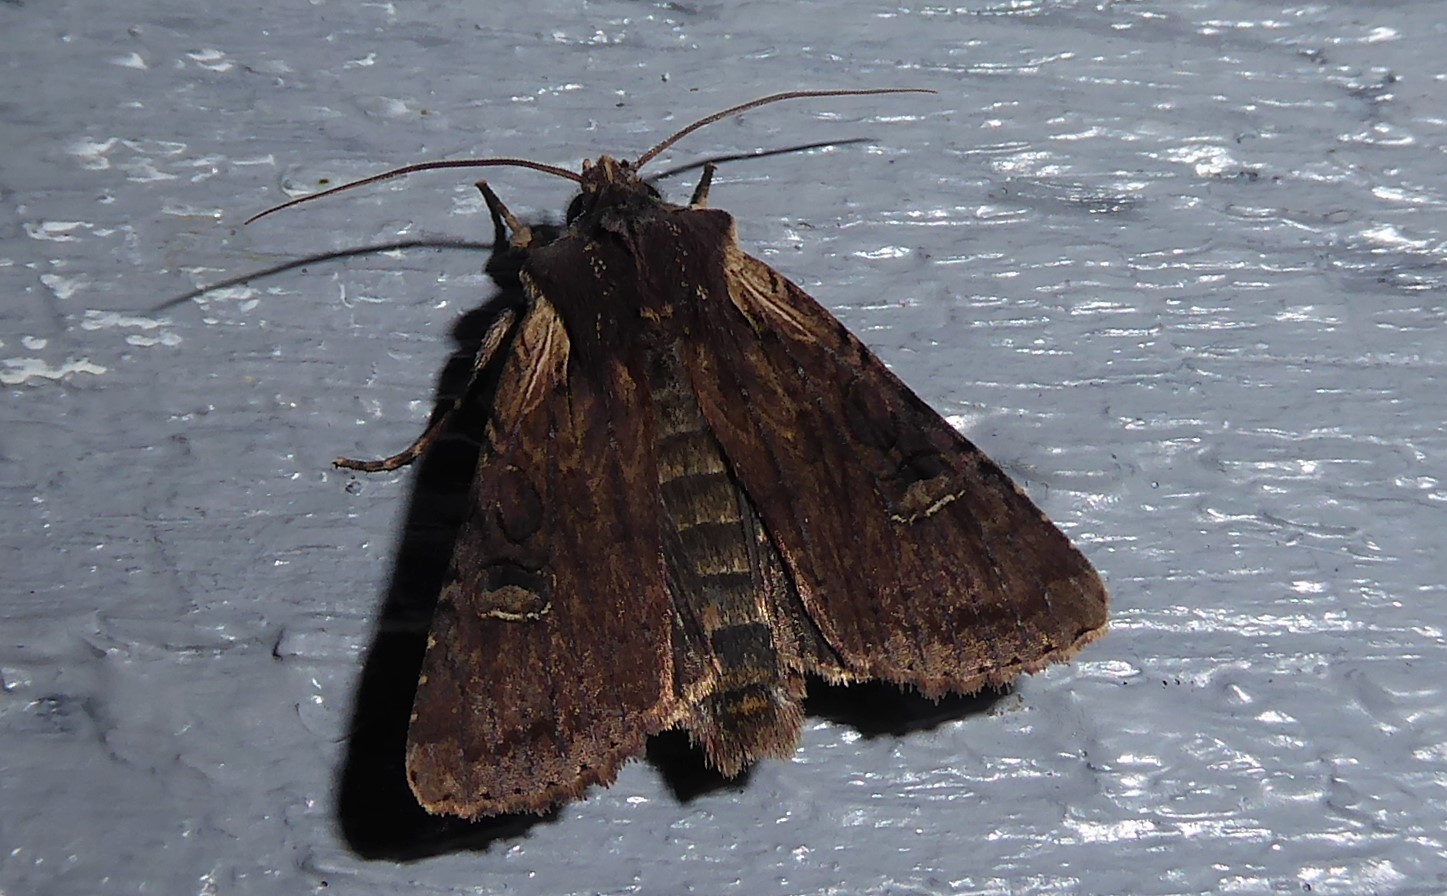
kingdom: Animalia
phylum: Arthropoda
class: Insecta
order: Lepidoptera
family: Noctuidae
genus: Ichneutica
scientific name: Ichneutica omoplaca
